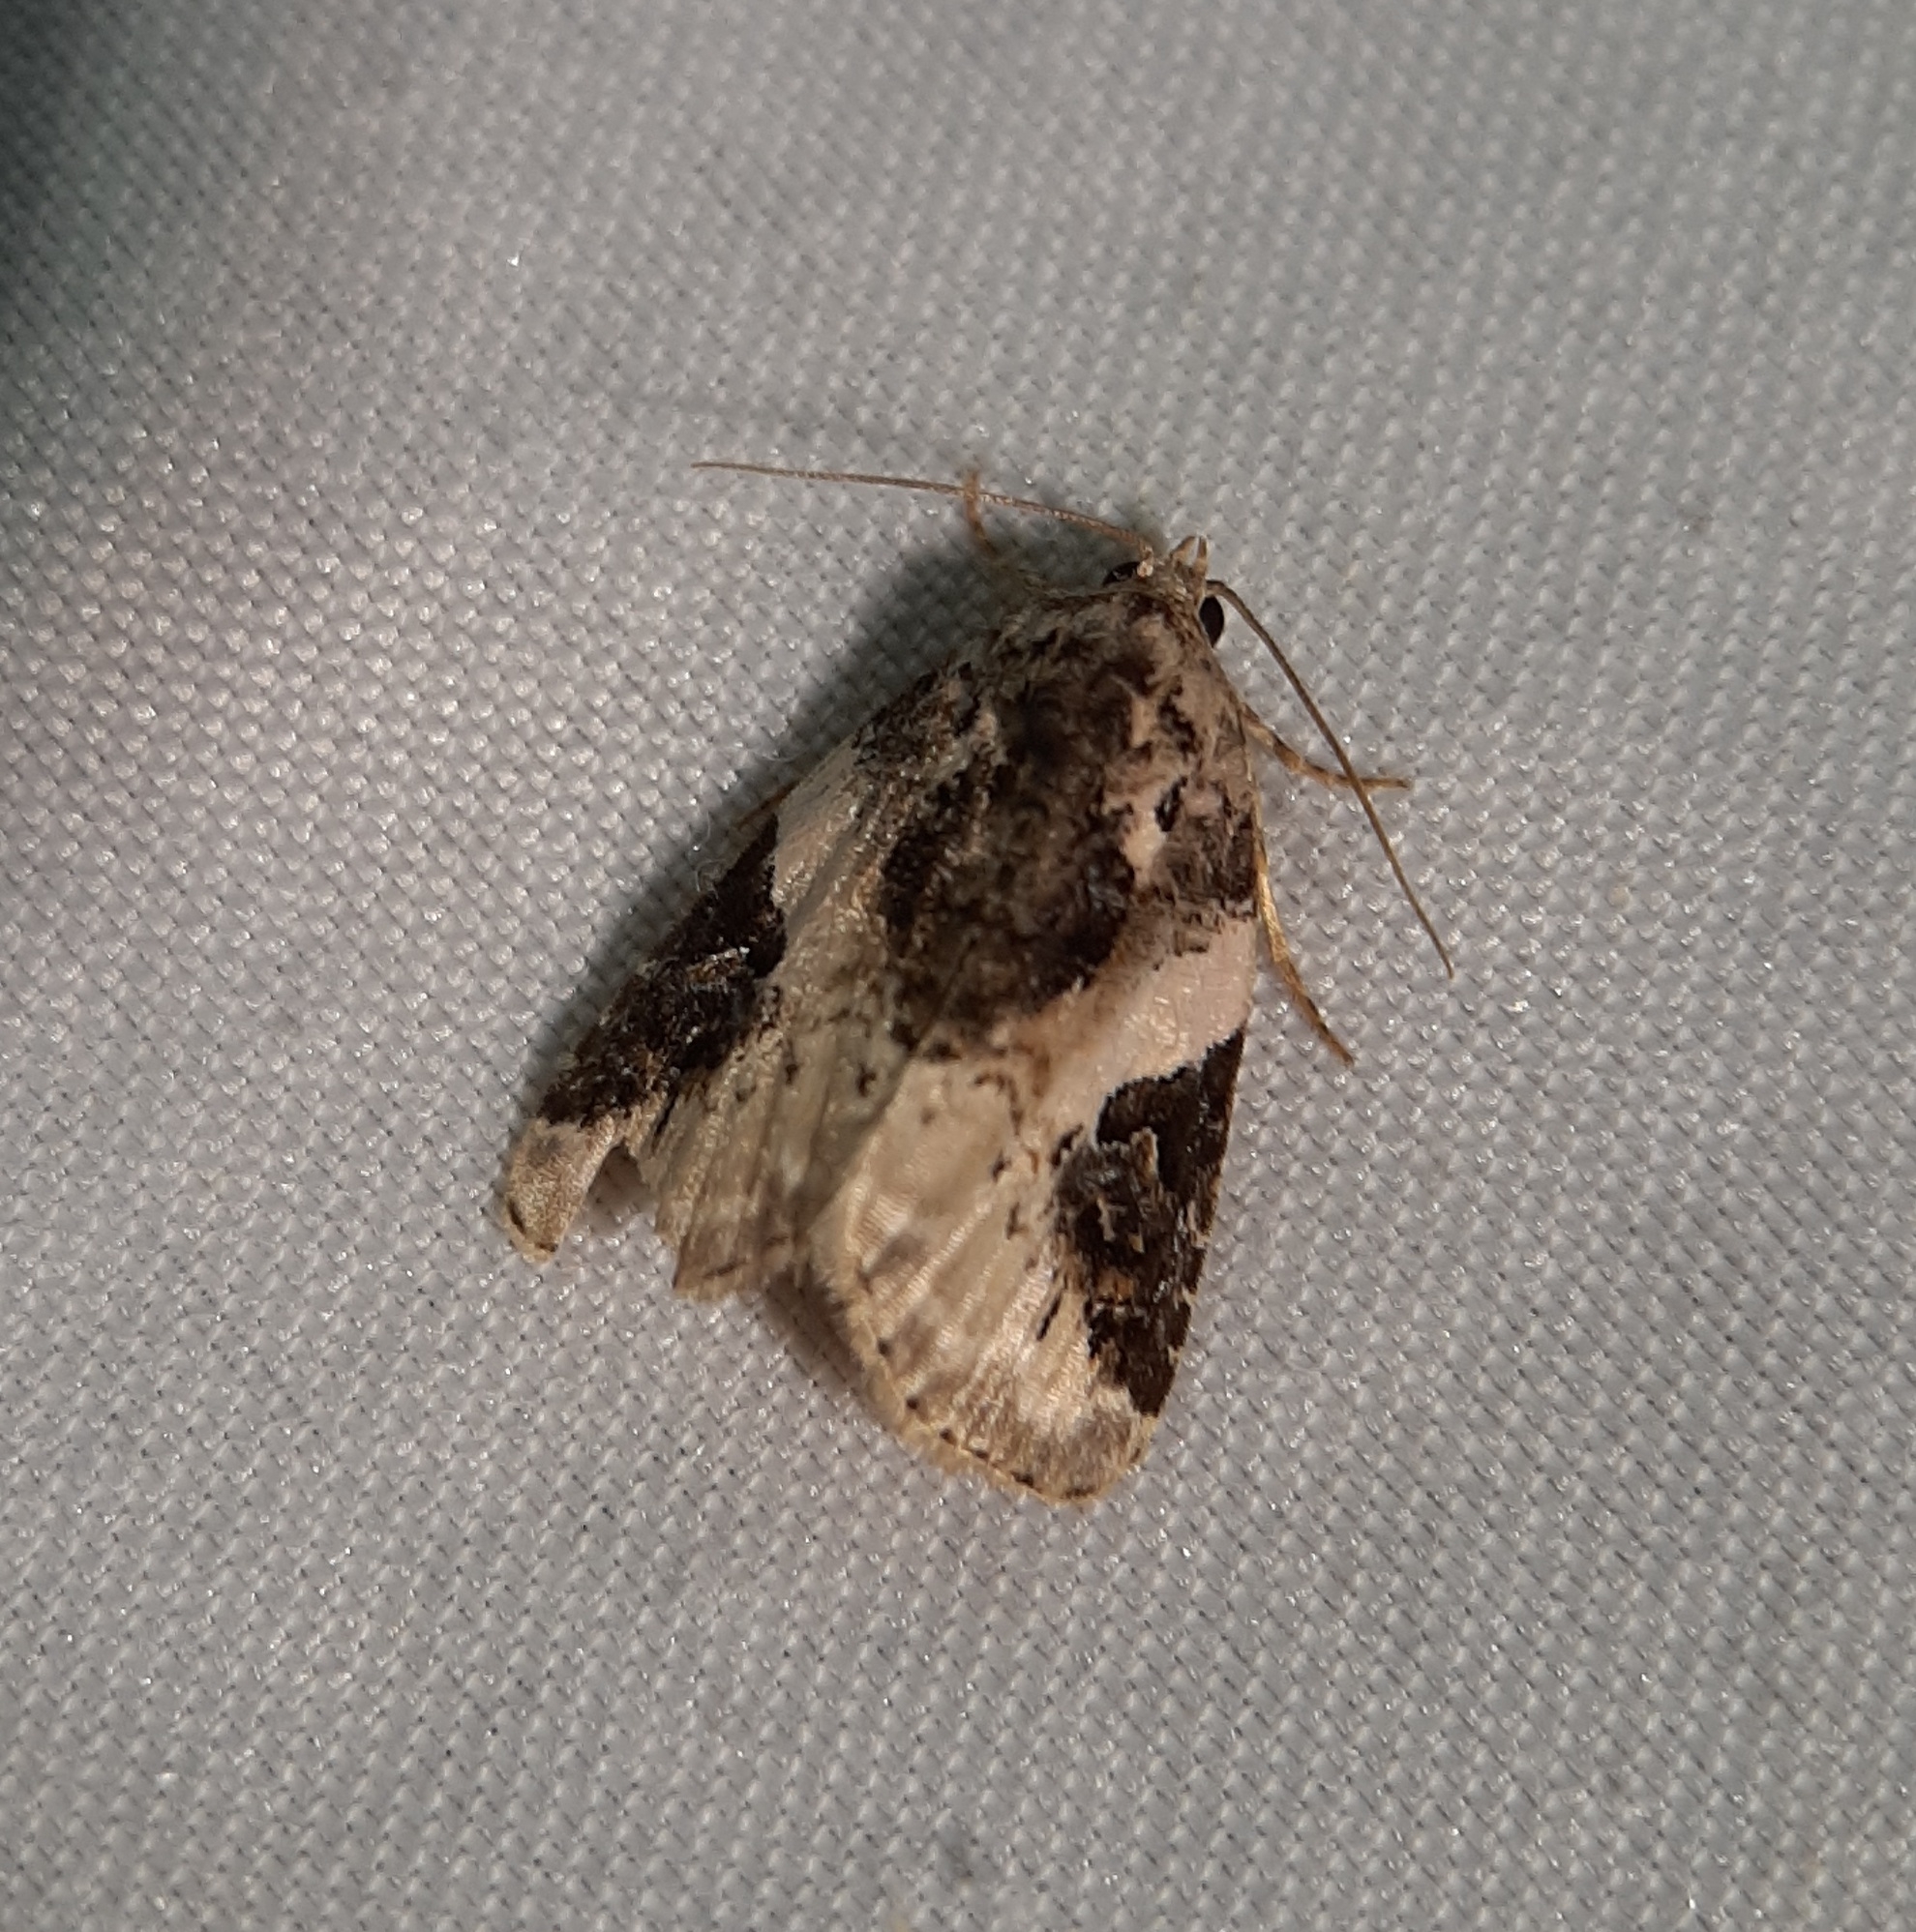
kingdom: Animalia
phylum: Arthropoda
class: Insecta
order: Lepidoptera
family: Noctuidae
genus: Pseudeustrotia
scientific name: Pseudeustrotia carneola
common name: Pink-barred lithacodia moth
